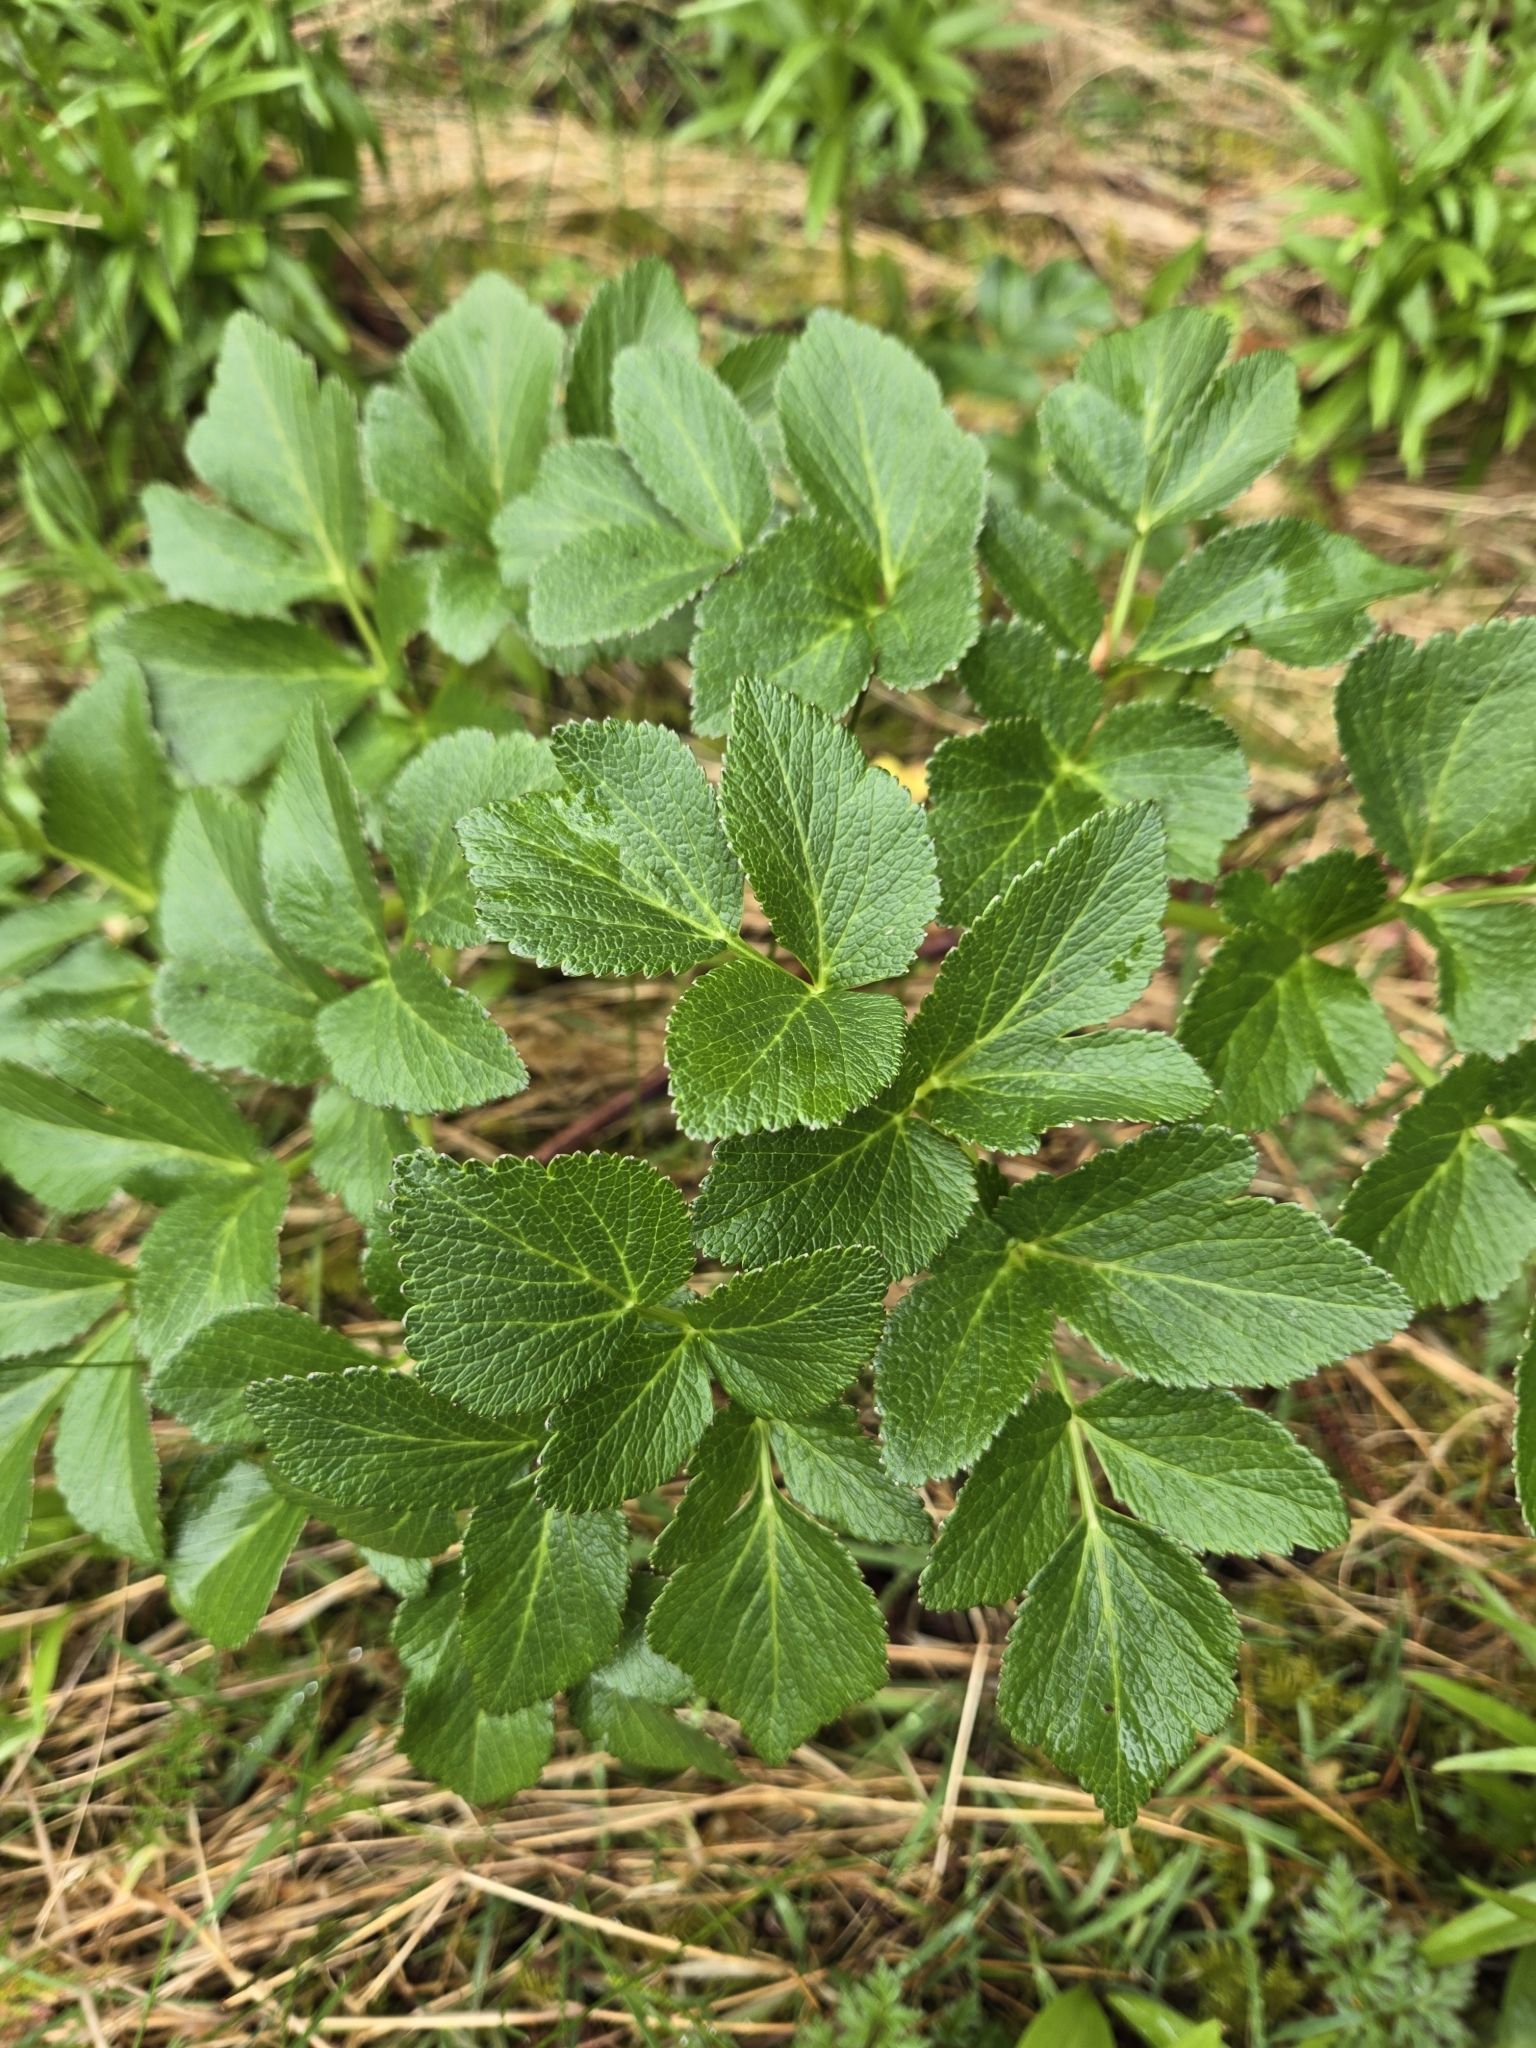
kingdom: Plantae
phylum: Tracheophyta
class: Magnoliopsida
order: Apiales
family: Apiaceae
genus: Angelica
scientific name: Angelica lucida
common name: Seabeach angelica
